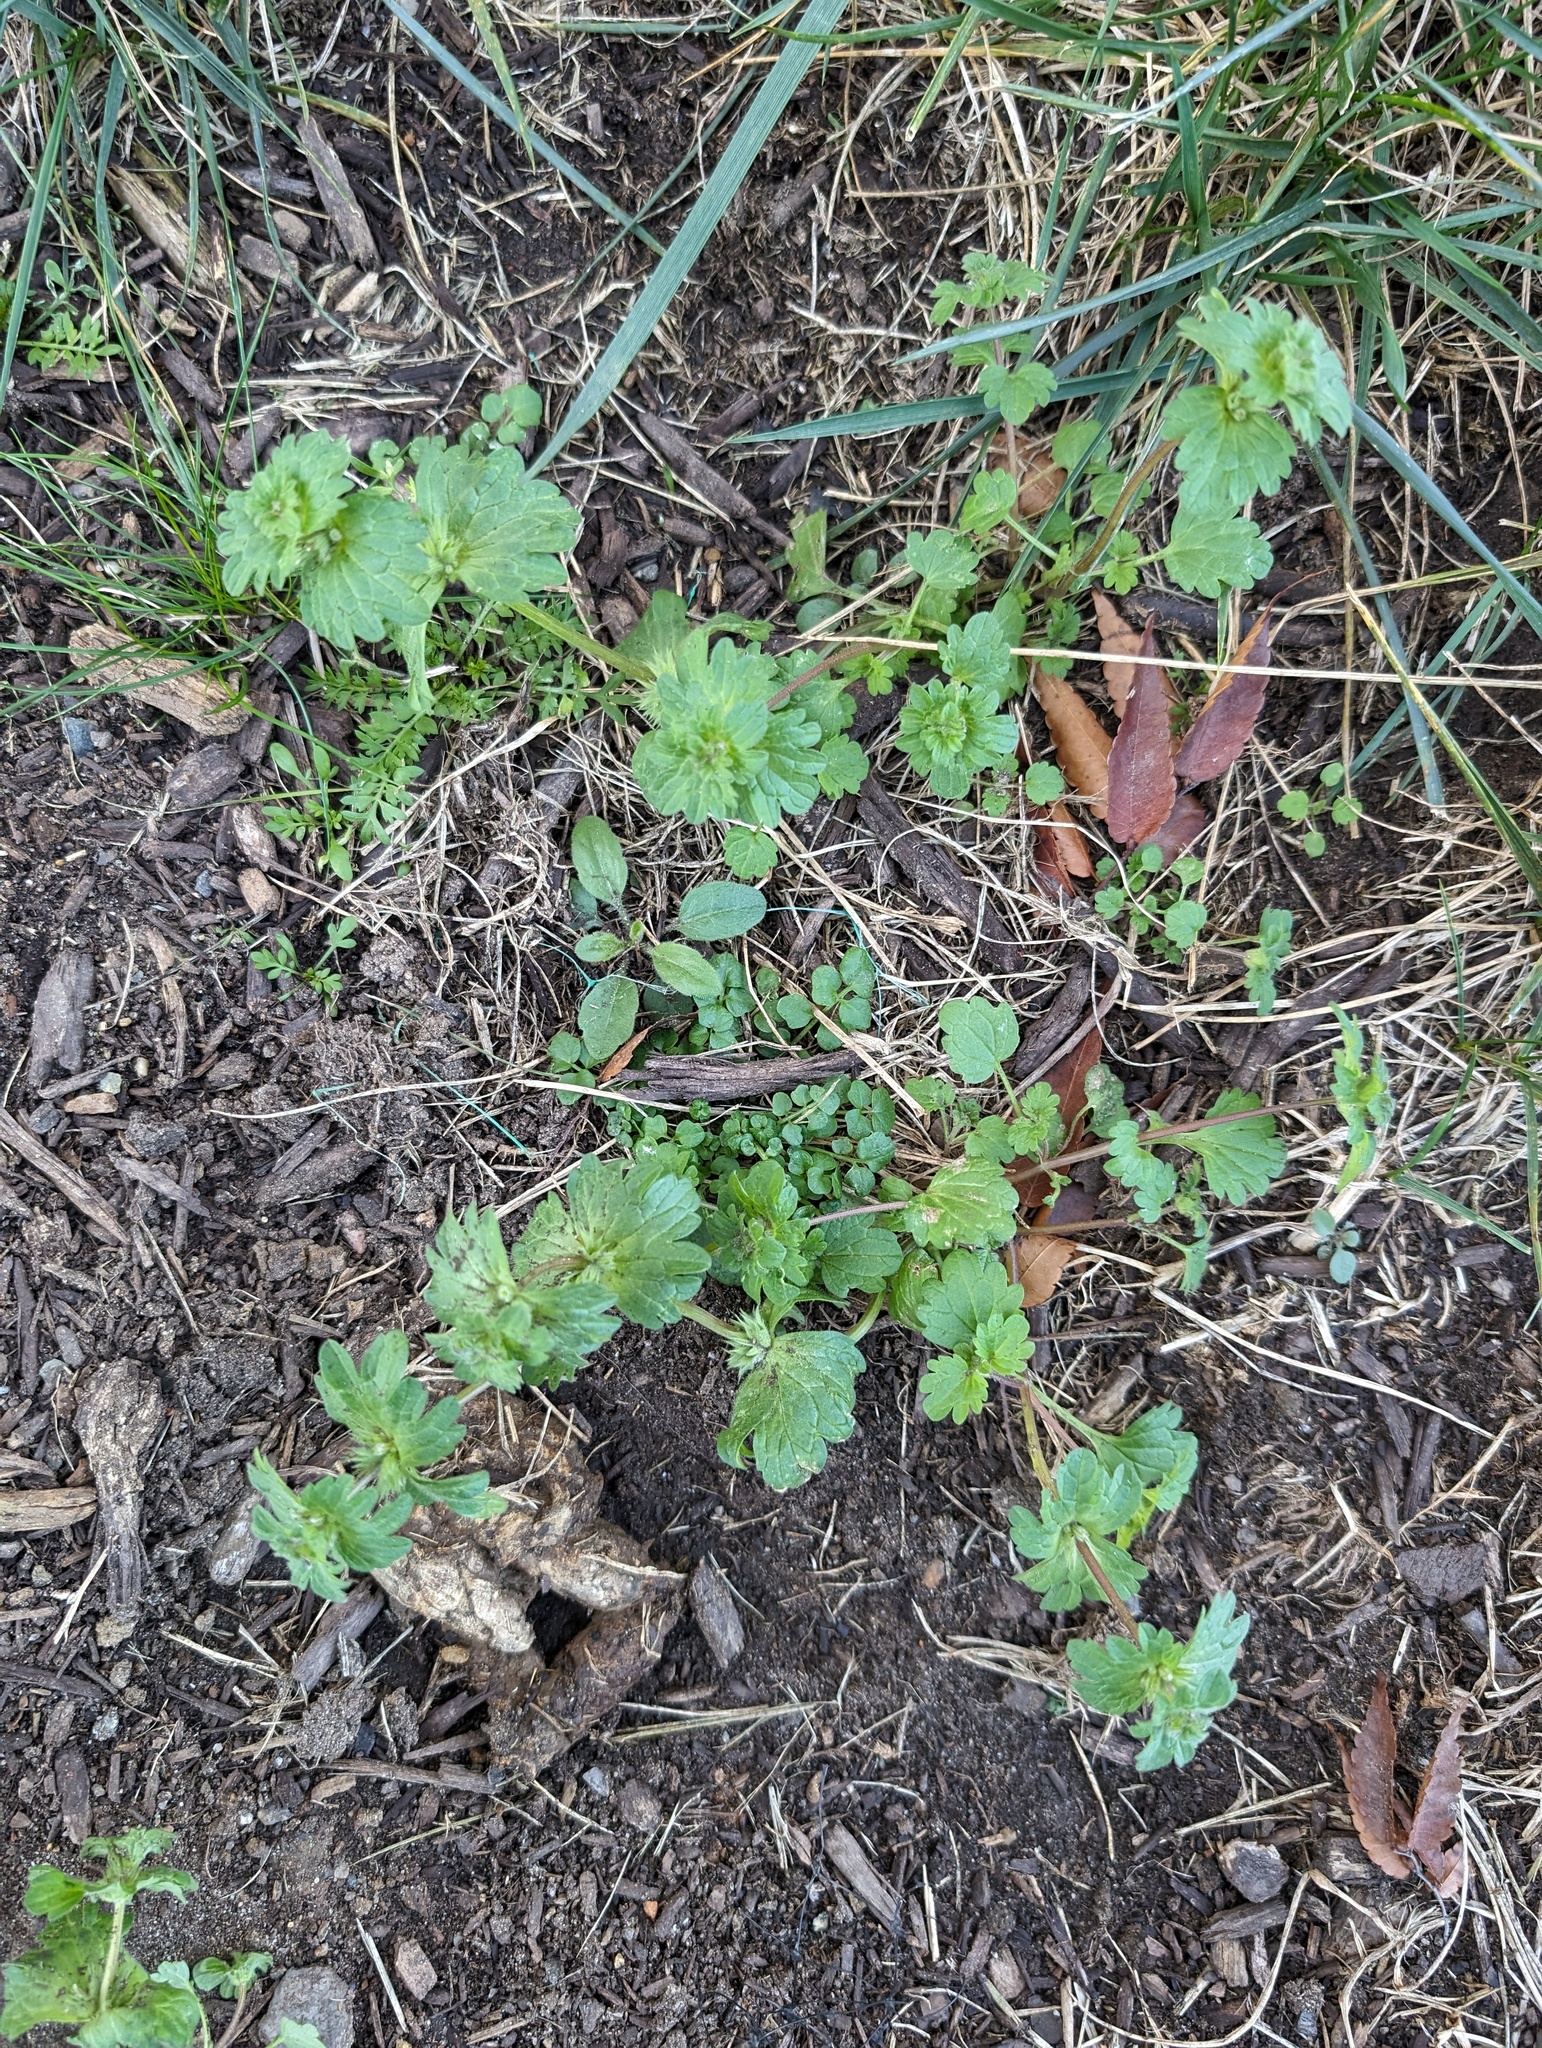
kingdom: Plantae
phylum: Tracheophyta
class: Magnoliopsida
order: Lamiales
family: Lamiaceae
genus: Lamium
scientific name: Lamium amplexicaule
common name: Henbit dead-nettle
